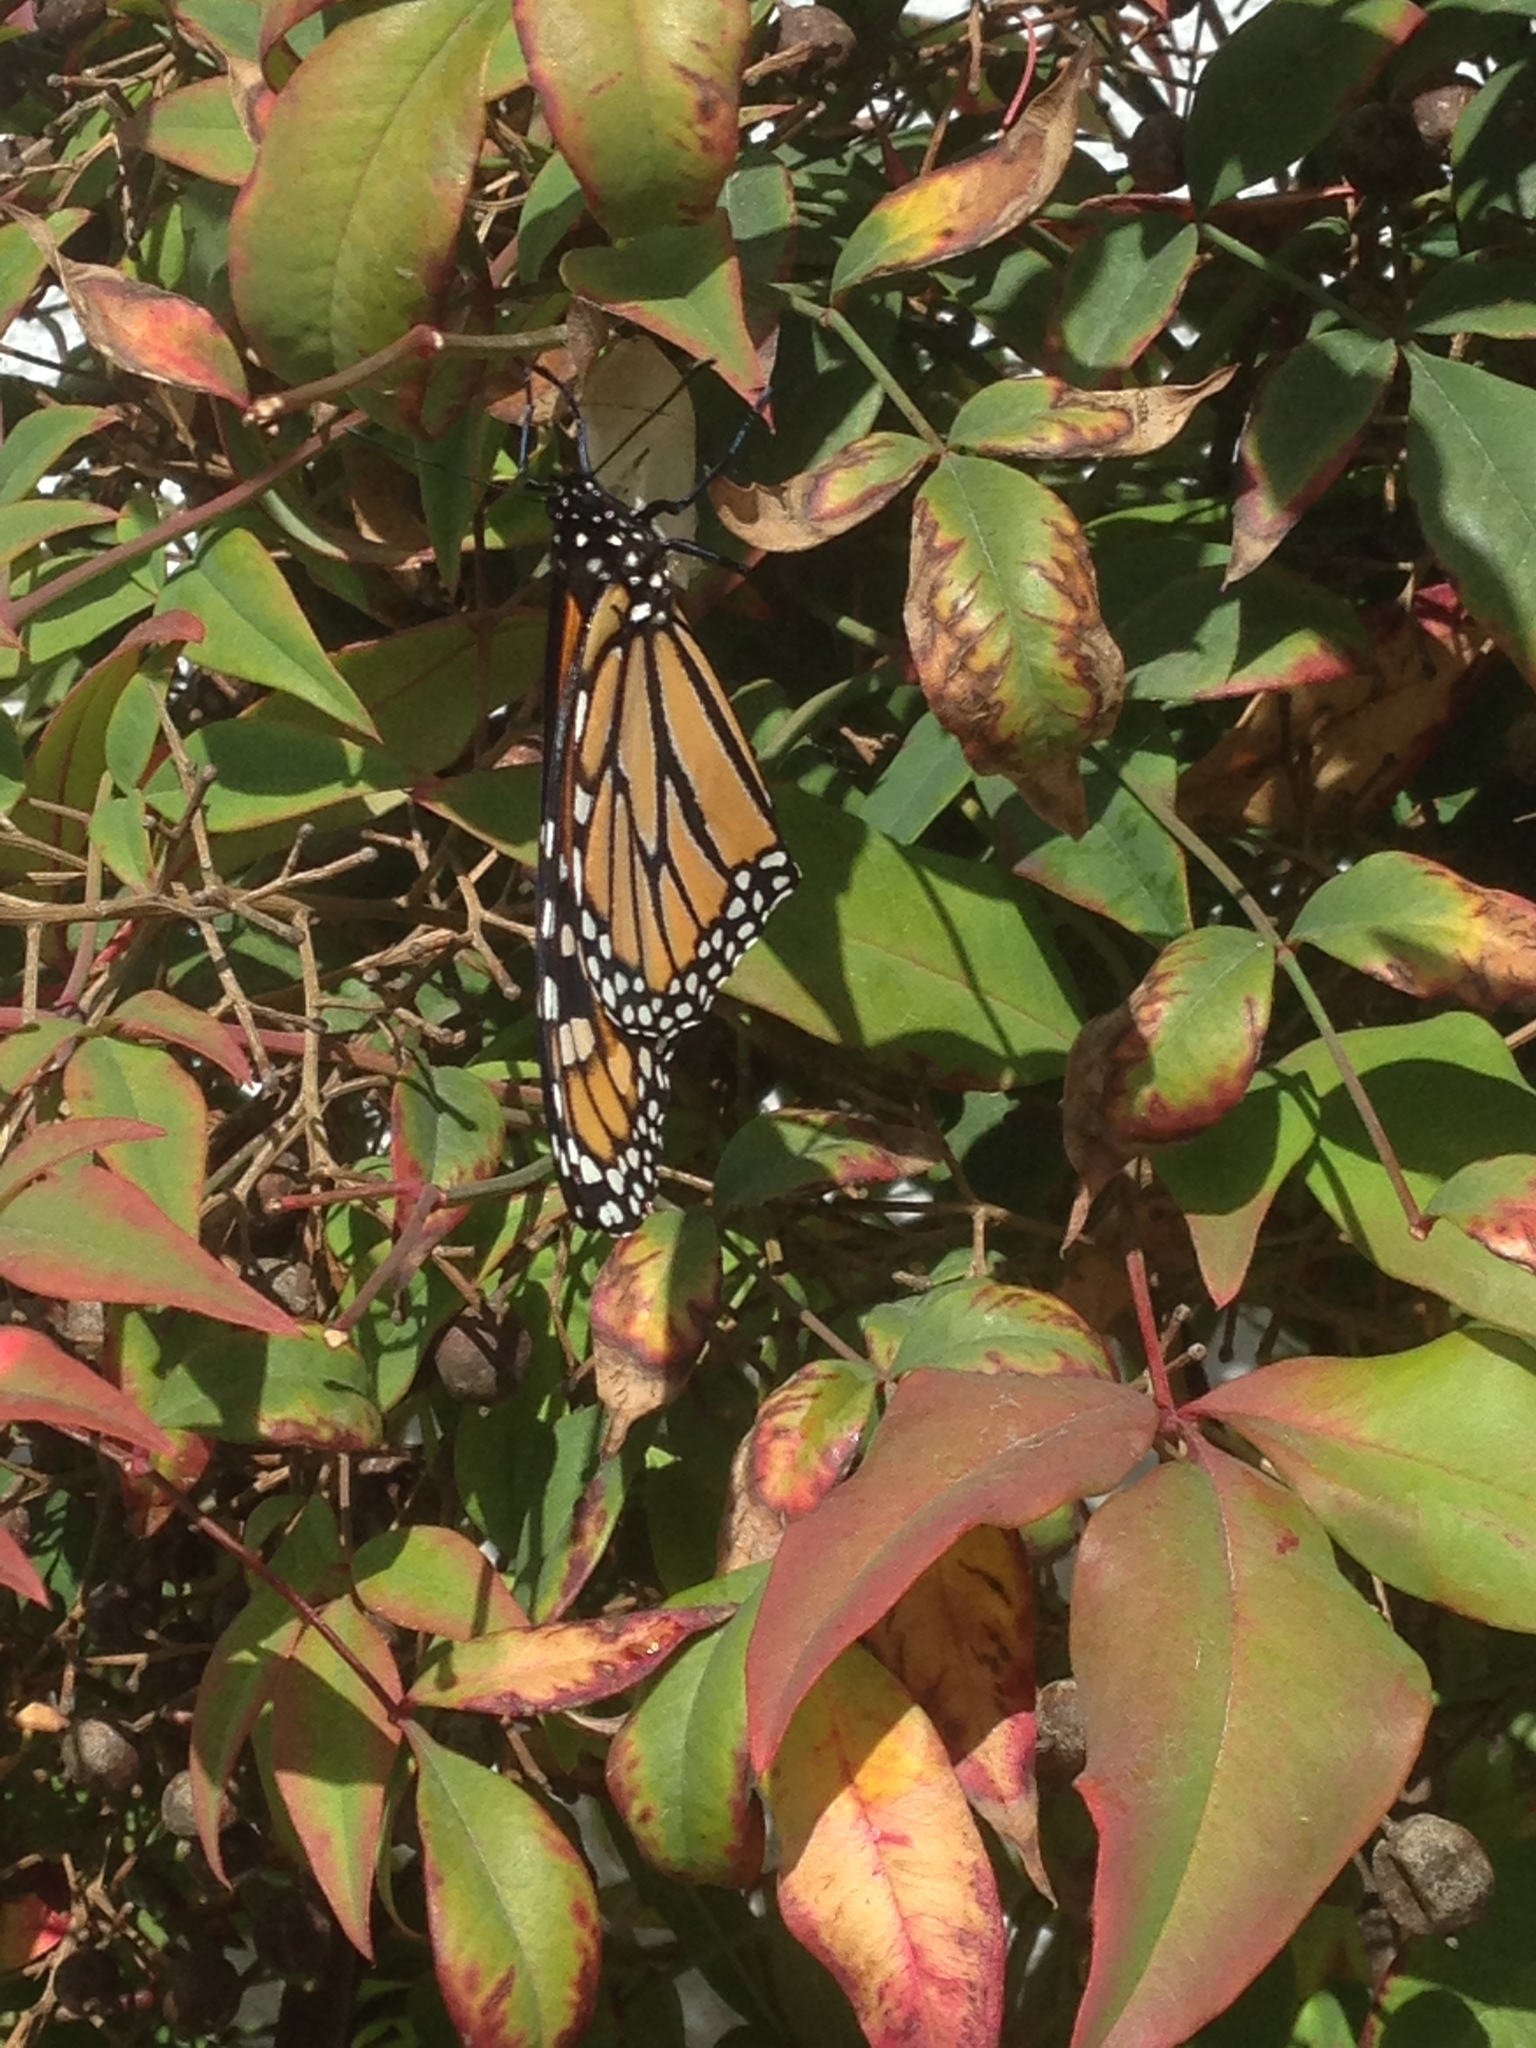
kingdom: Animalia
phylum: Arthropoda
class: Insecta
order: Lepidoptera
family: Nymphalidae
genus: Danaus
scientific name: Danaus plexippus
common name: Monarch
